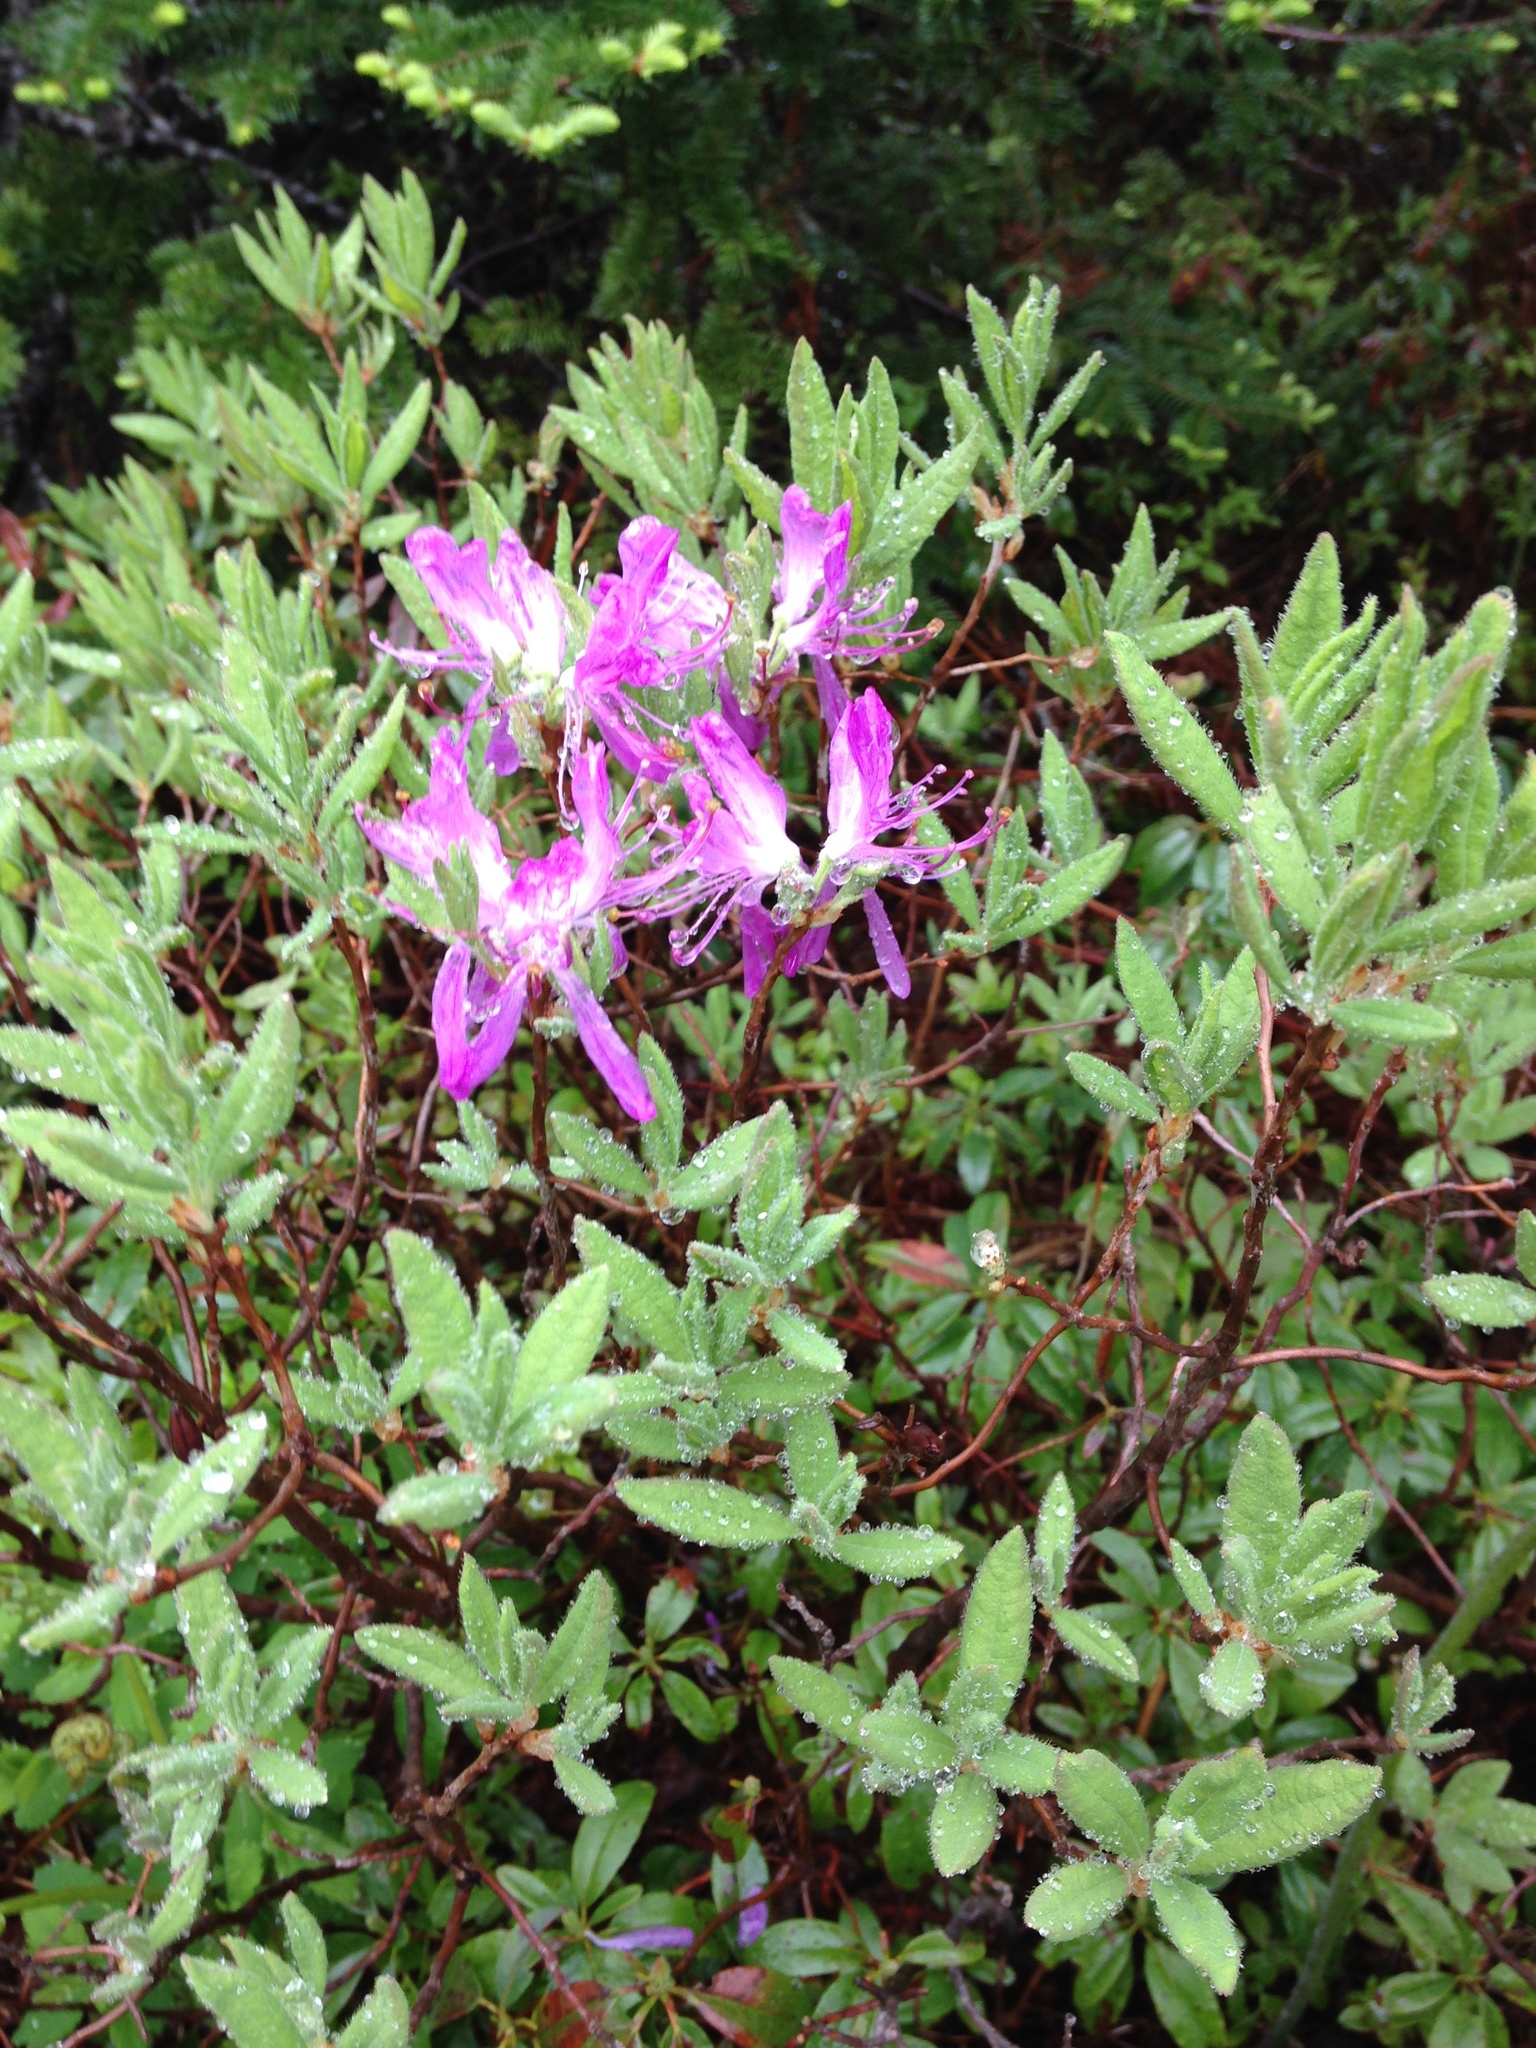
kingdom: Plantae
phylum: Tracheophyta
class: Magnoliopsida
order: Ericales
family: Ericaceae
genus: Rhododendron
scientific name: Rhododendron canadense
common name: Rhodora
